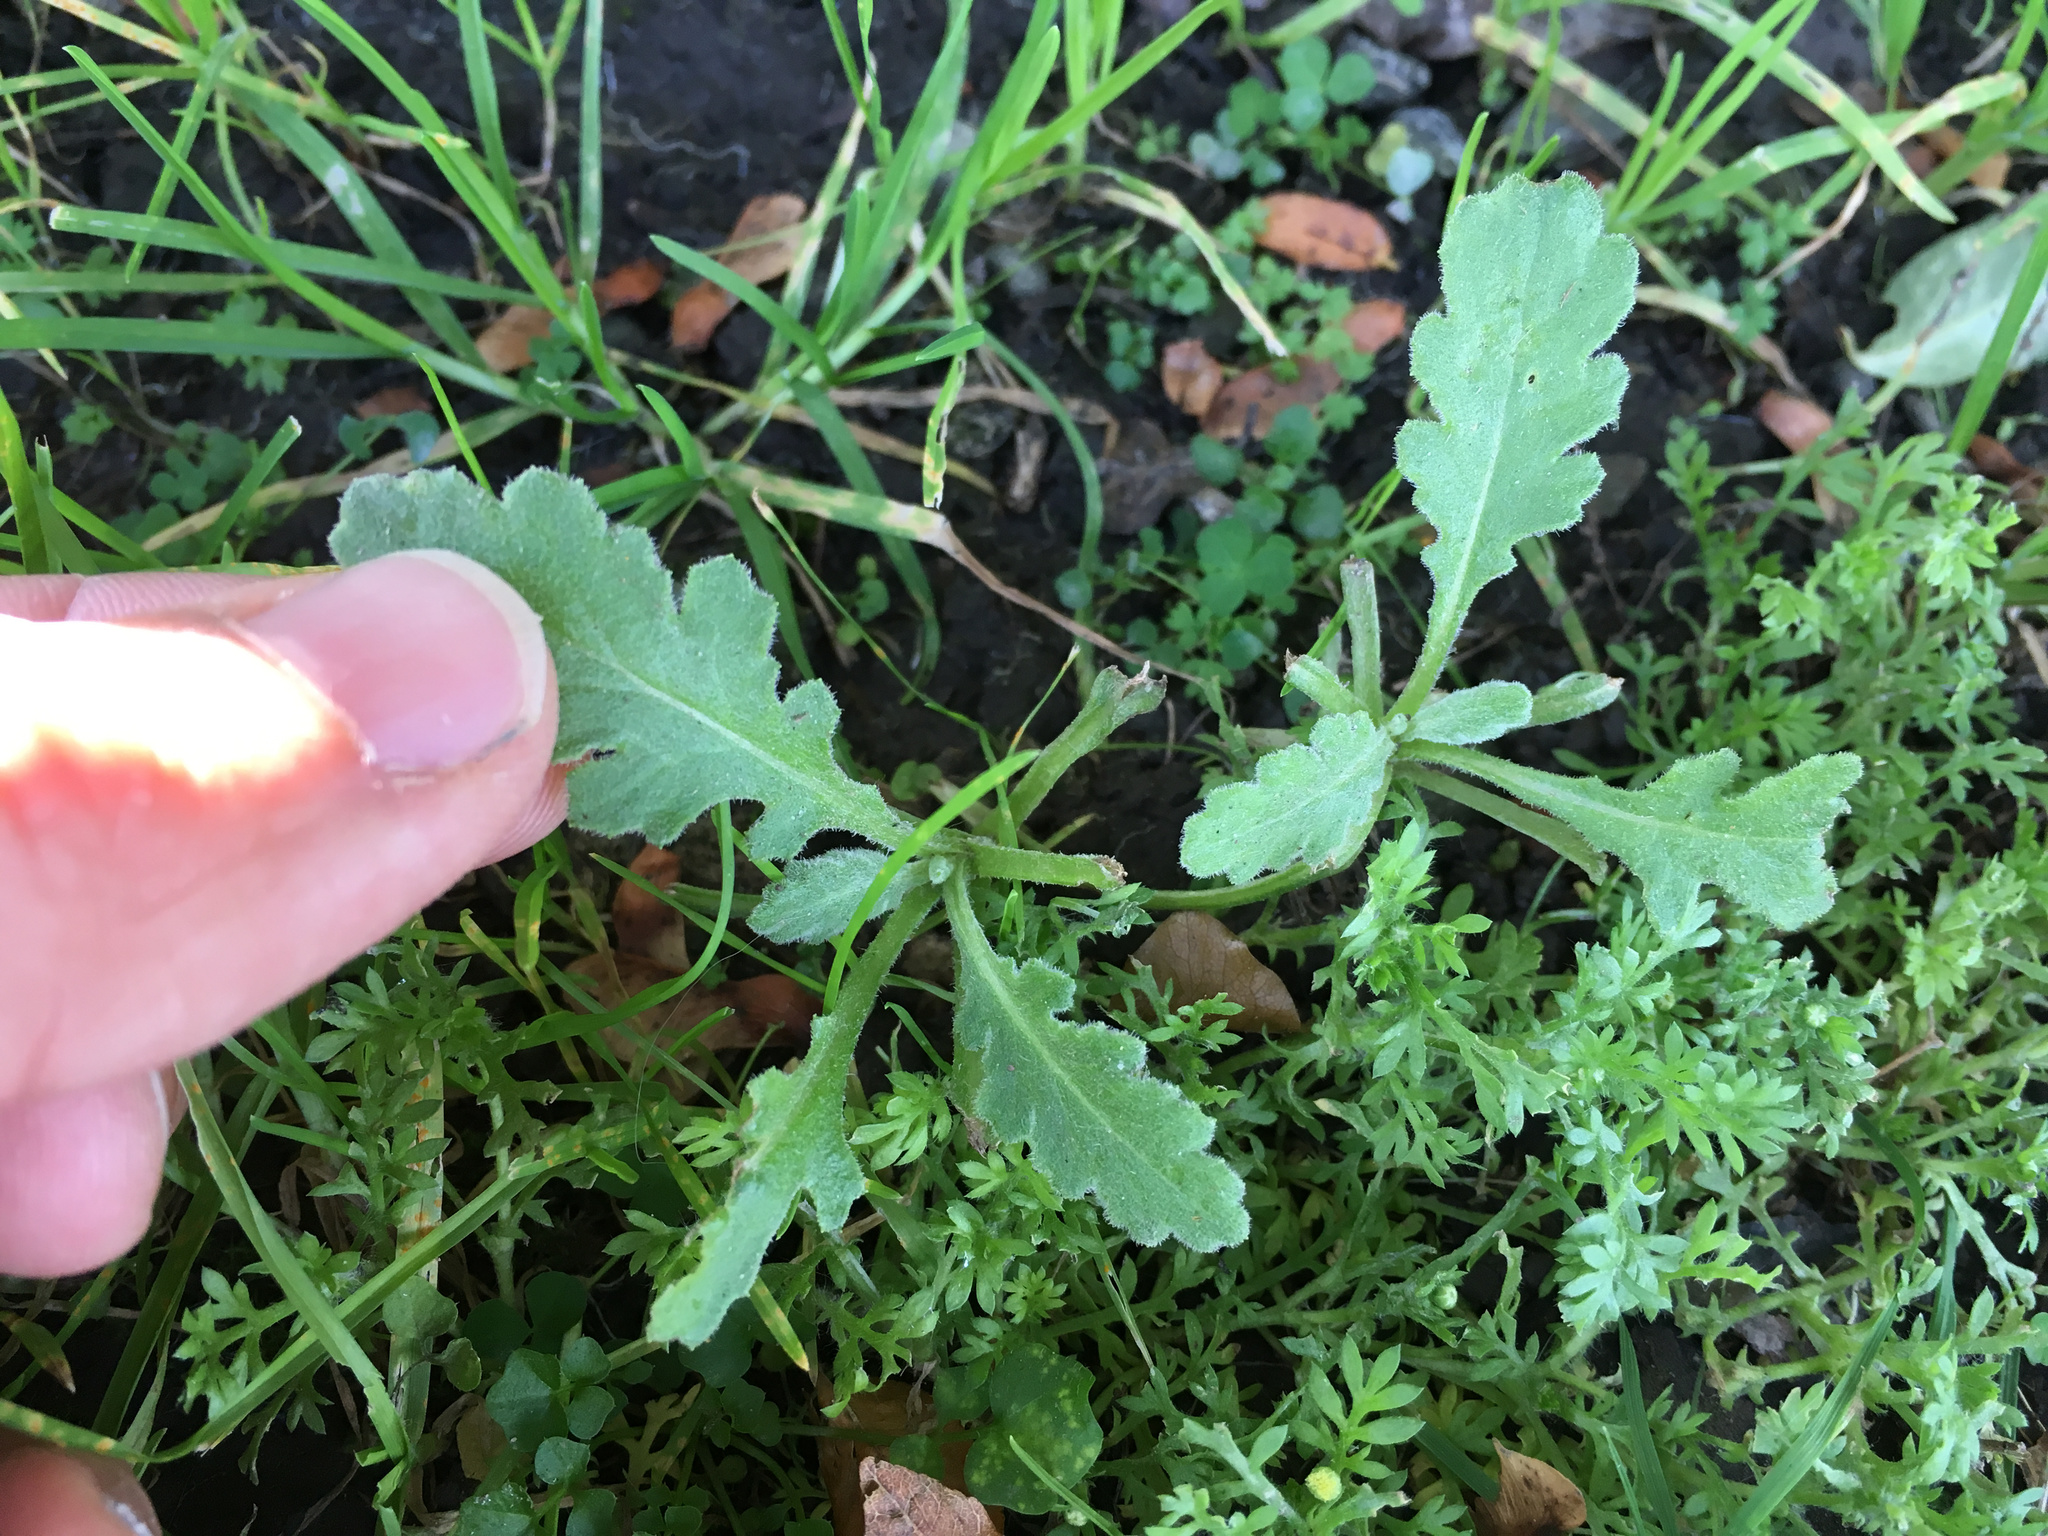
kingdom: Plantae
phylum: Tracheophyta
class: Magnoliopsida
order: Asterales
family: Asteraceae
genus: Senecio
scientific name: Senecio glomeratus
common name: Cutleaf burnweed
